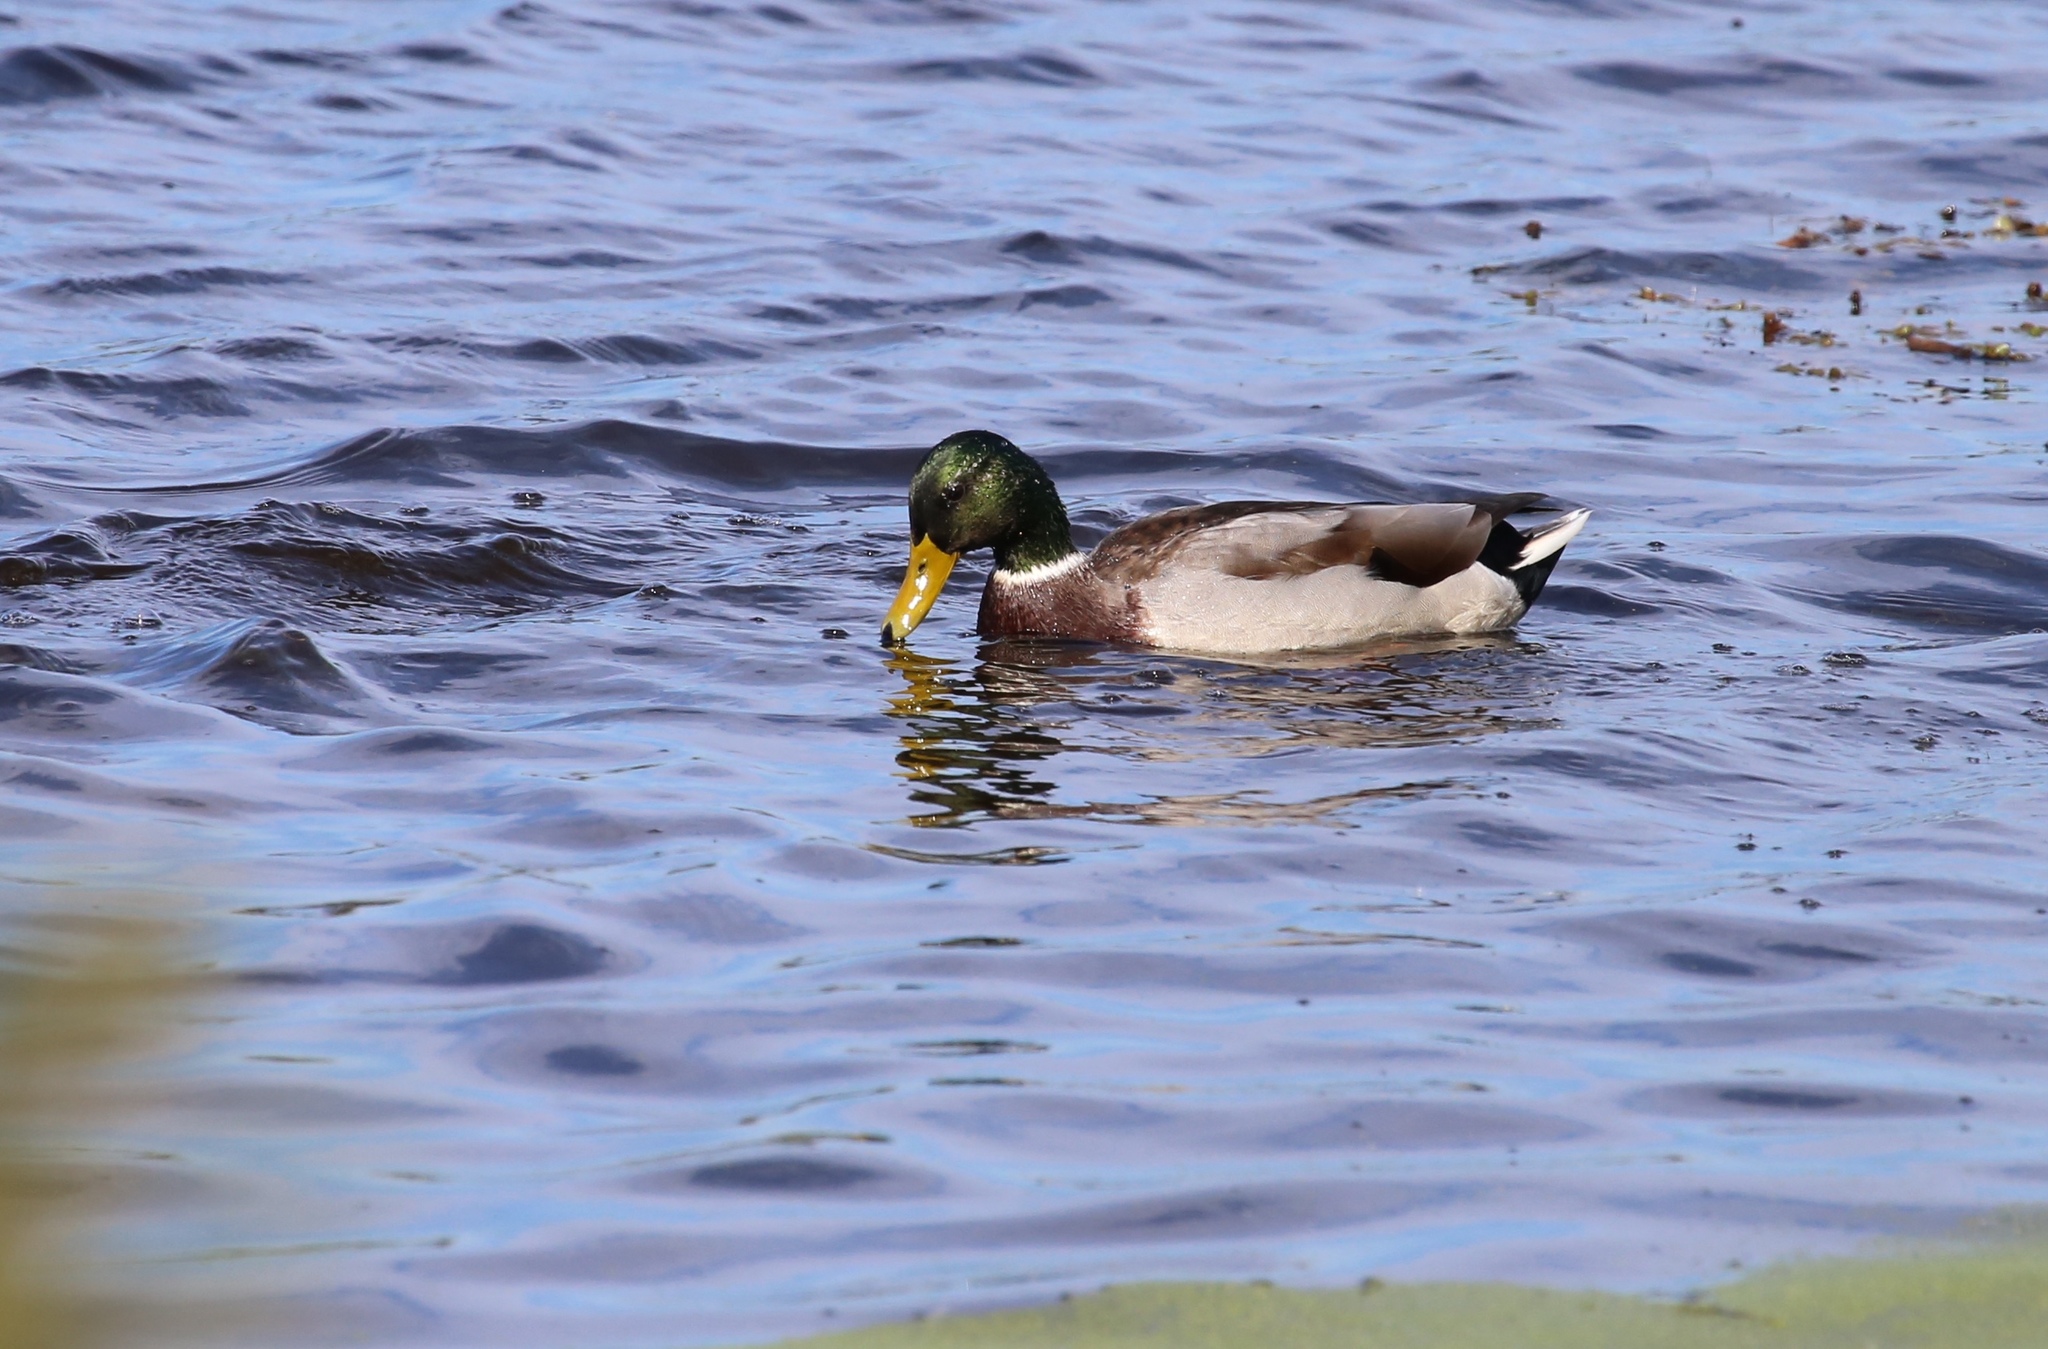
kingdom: Animalia
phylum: Chordata
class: Aves
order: Anseriformes
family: Anatidae
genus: Anas
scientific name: Anas platyrhynchos
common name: Mallard
